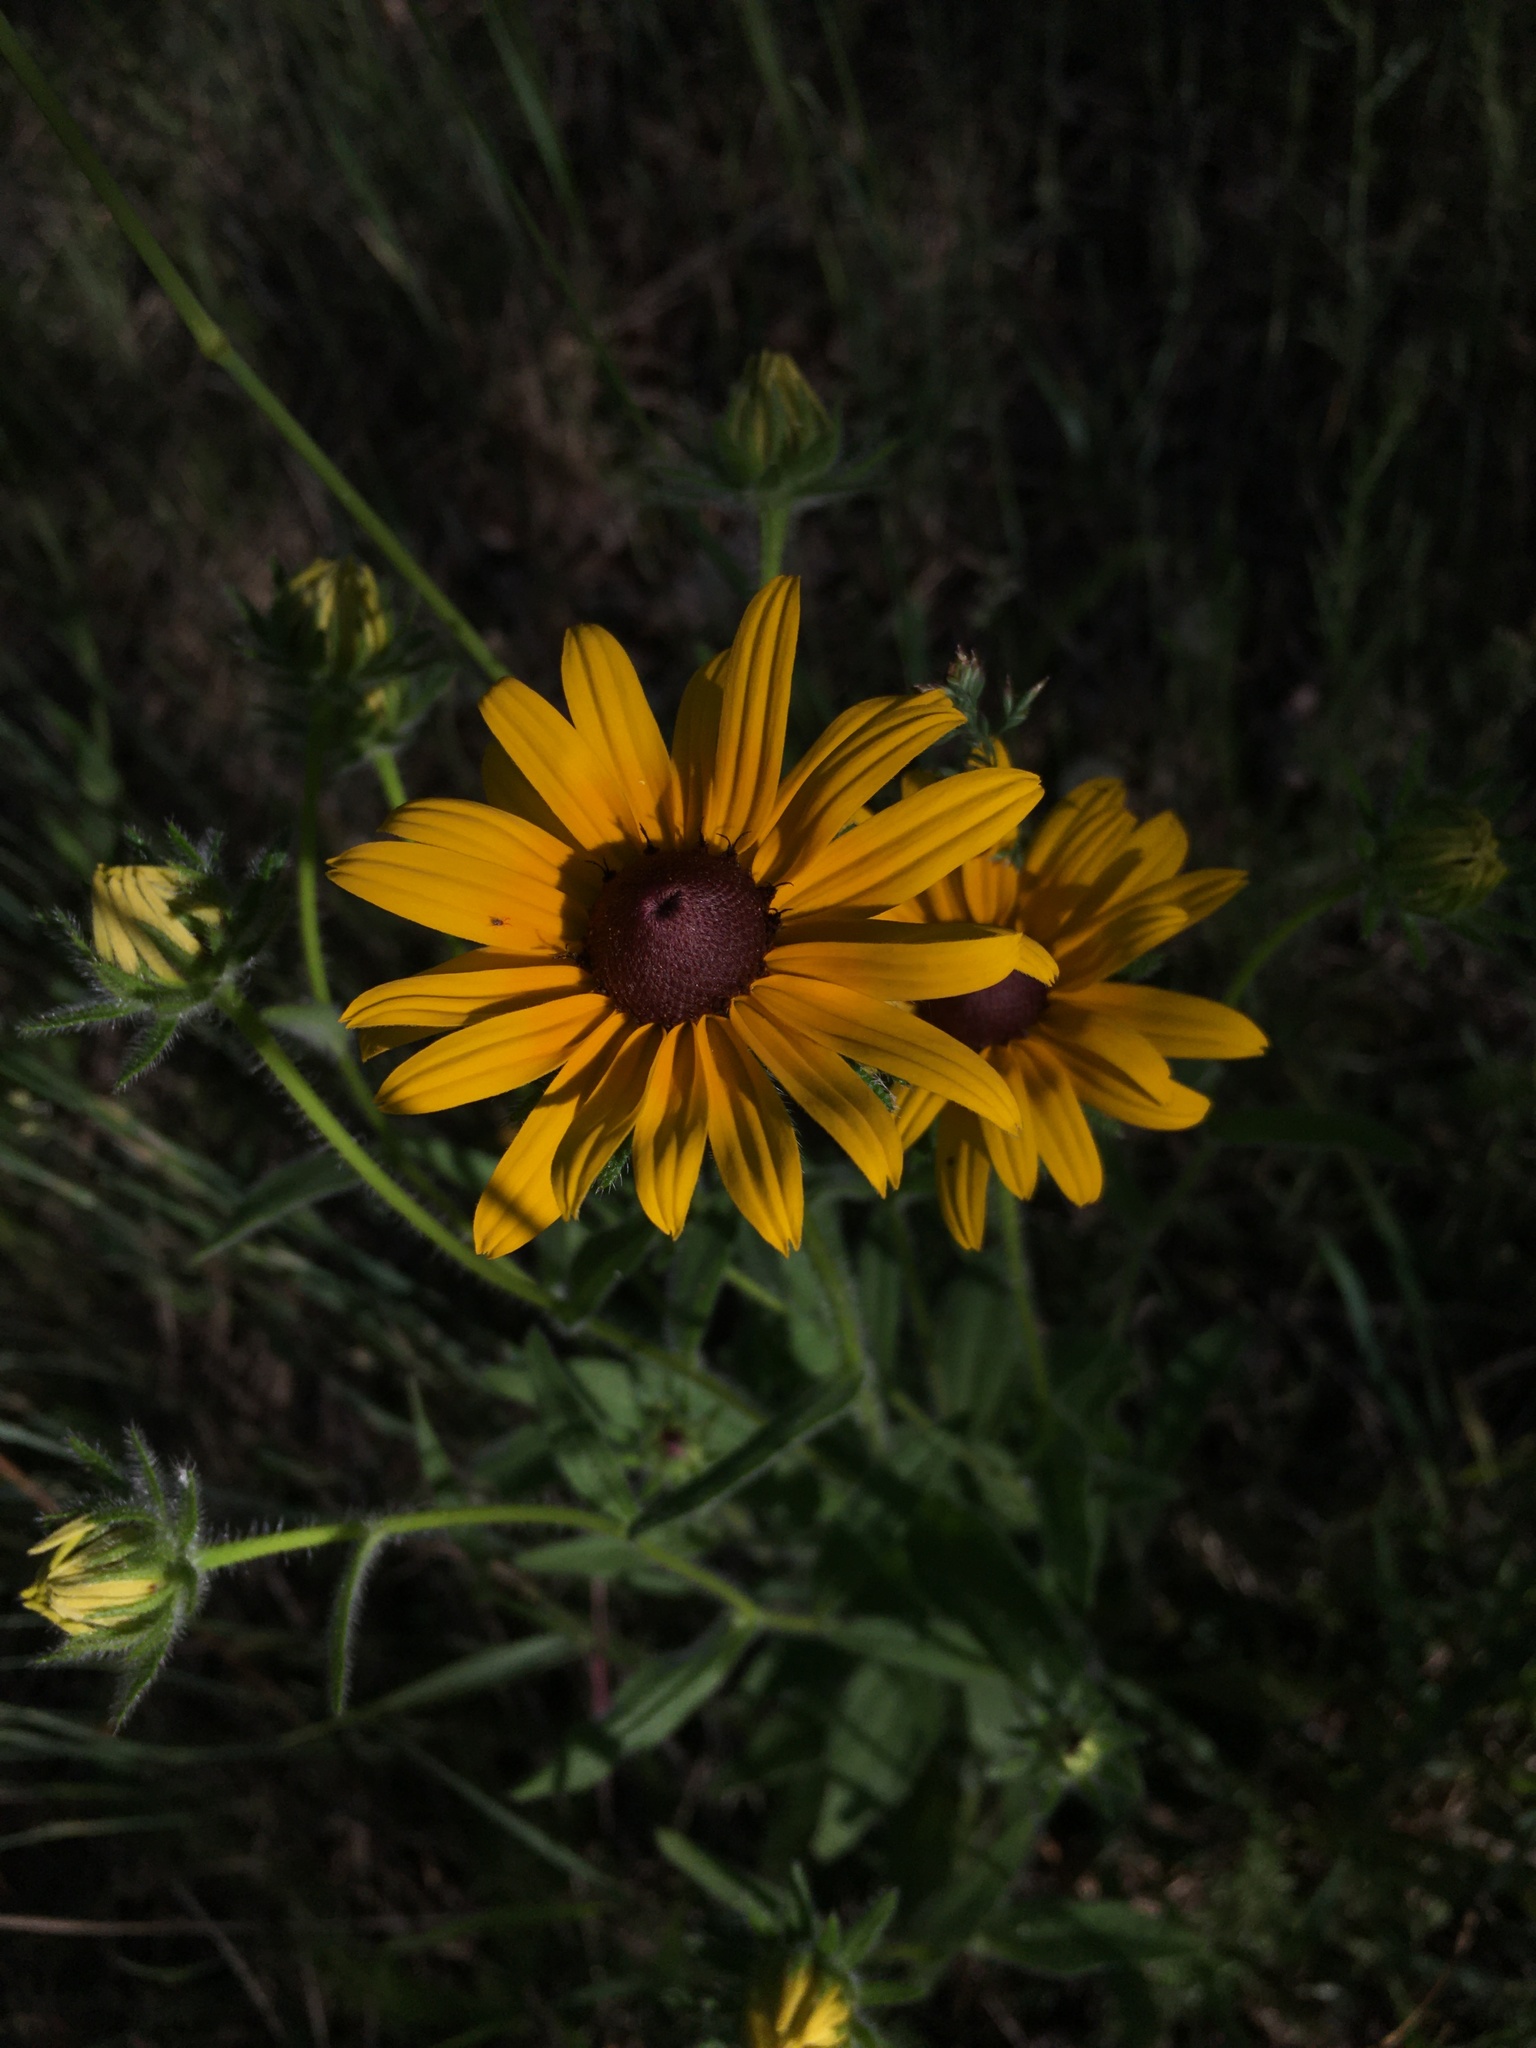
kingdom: Plantae
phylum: Tracheophyta
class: Magnoliopsida
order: Asterales
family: Asteraceae
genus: Rudbeckia
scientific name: Rudbeckia hirta
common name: Black-eyed-susan
